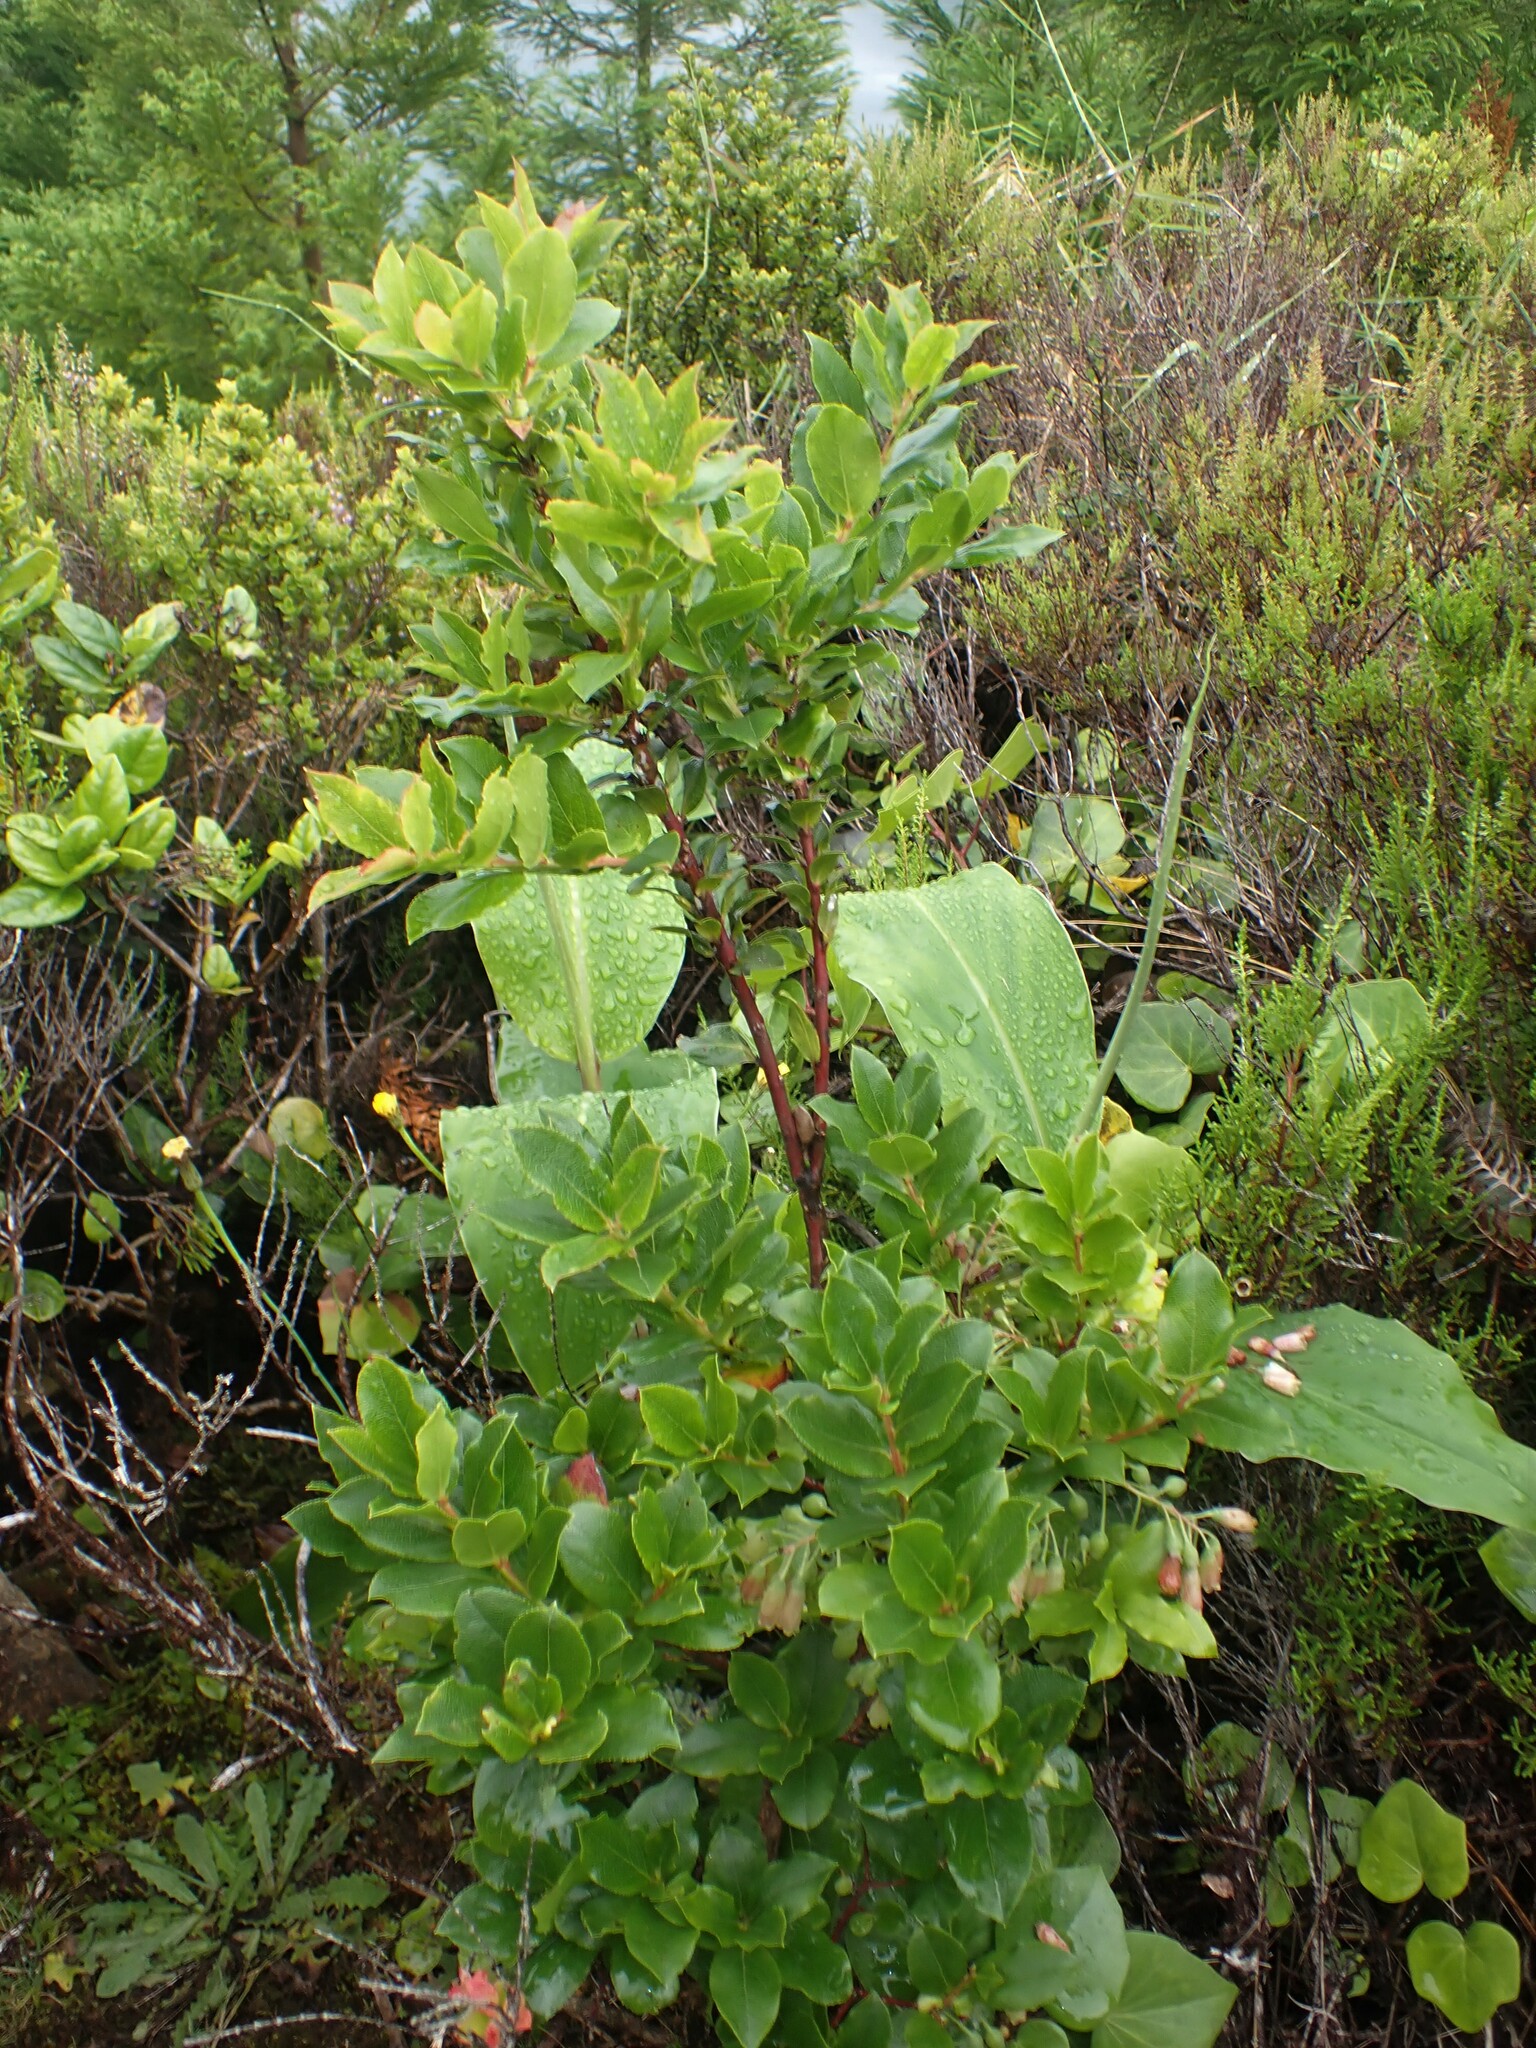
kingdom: Plantae
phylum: Tracheophyta
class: Magnoliopsida
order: Ericales
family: Ericaceae
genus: Vaccinium
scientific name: Vaccinium cylindraceum
